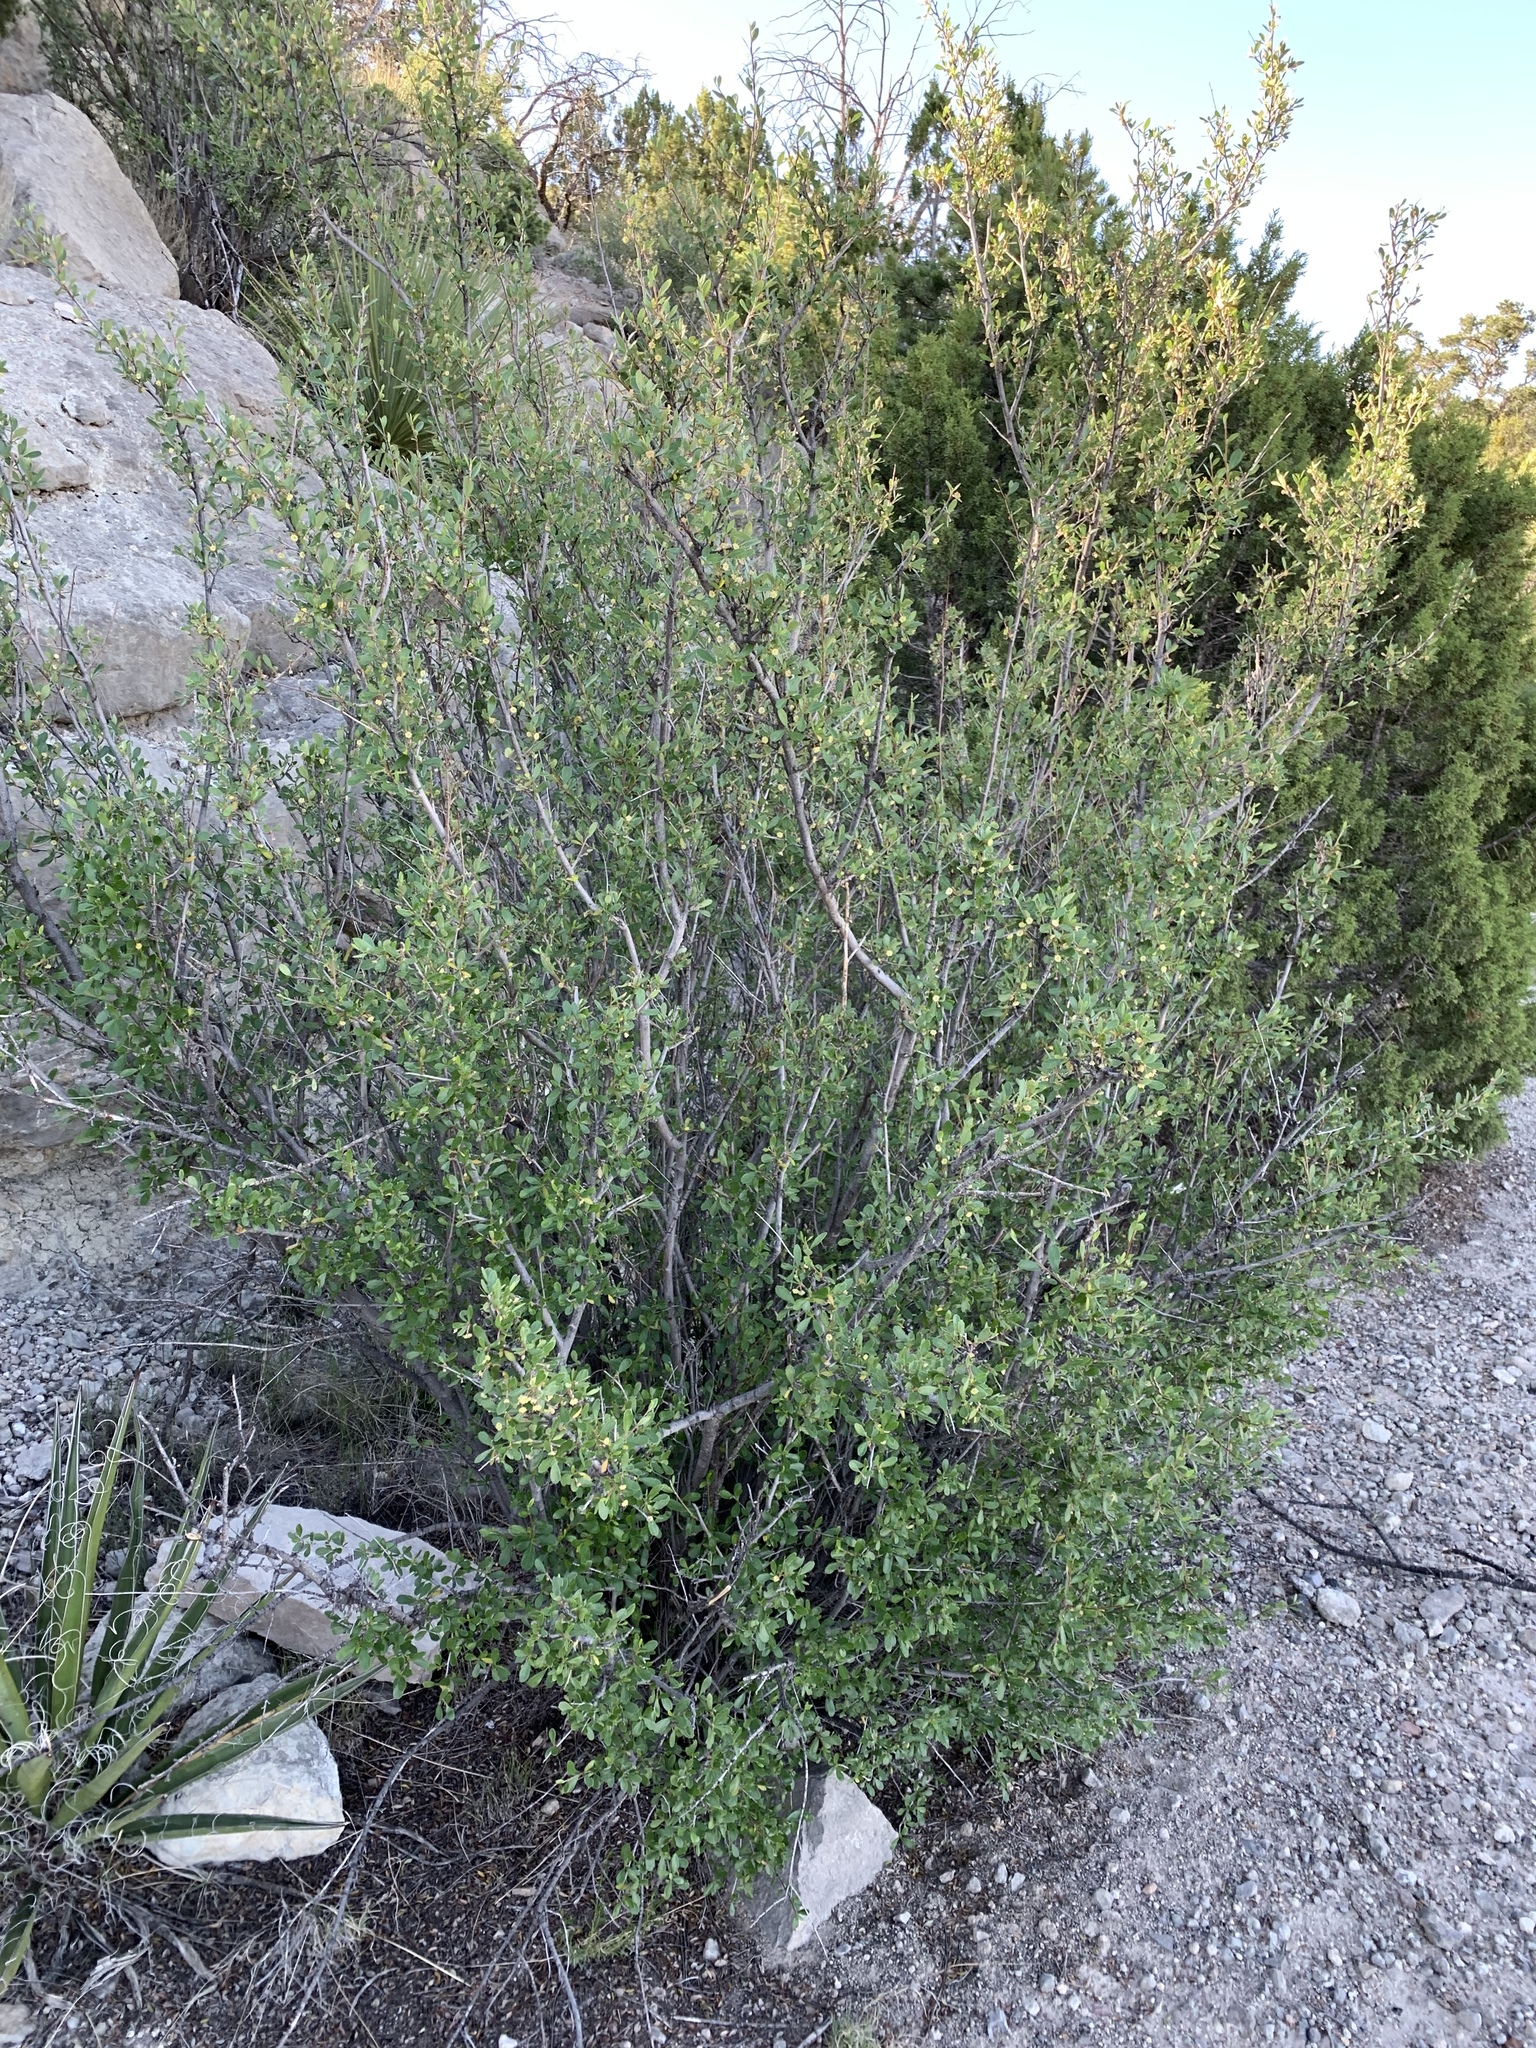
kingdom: Plantae
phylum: Tracheophyta
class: Magnoliopsida
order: Rosales
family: Rosaceae
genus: Cercocarpus
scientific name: Cercocarpus breviflorus
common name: Wright's mountain-mahogany
